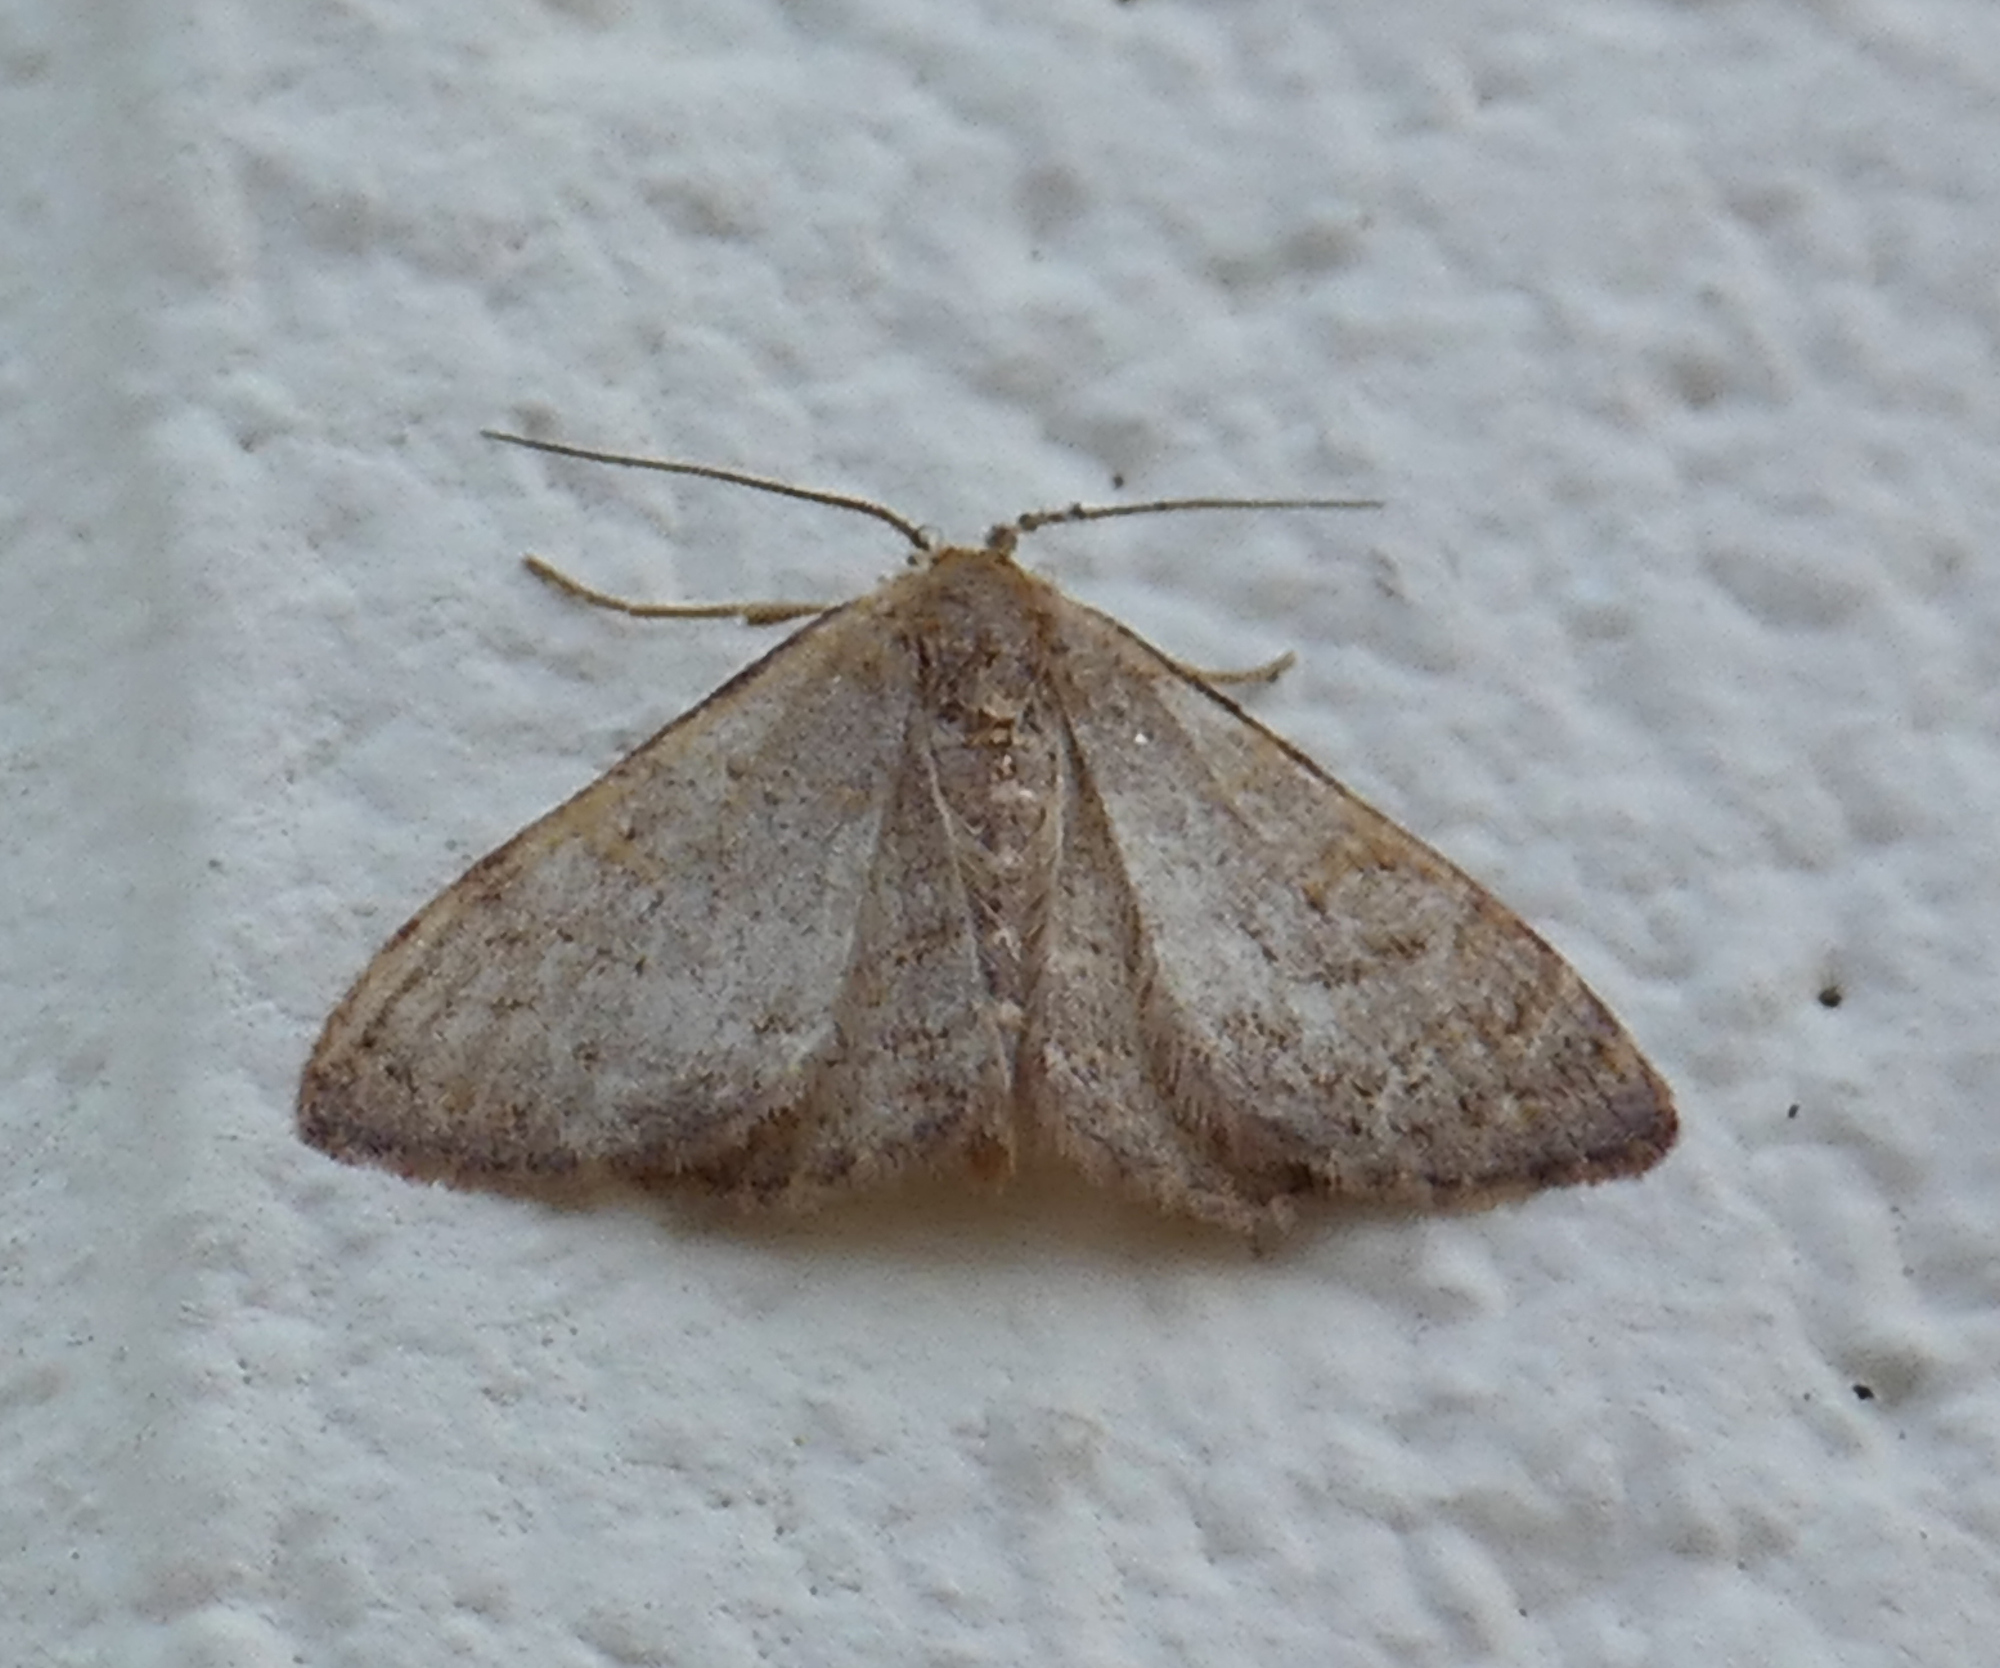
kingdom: Animalia
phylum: Arthropoda
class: Insecta
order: Lepidoptera
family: Geometridae
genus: Leptostales
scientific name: Leptostales pannaria
